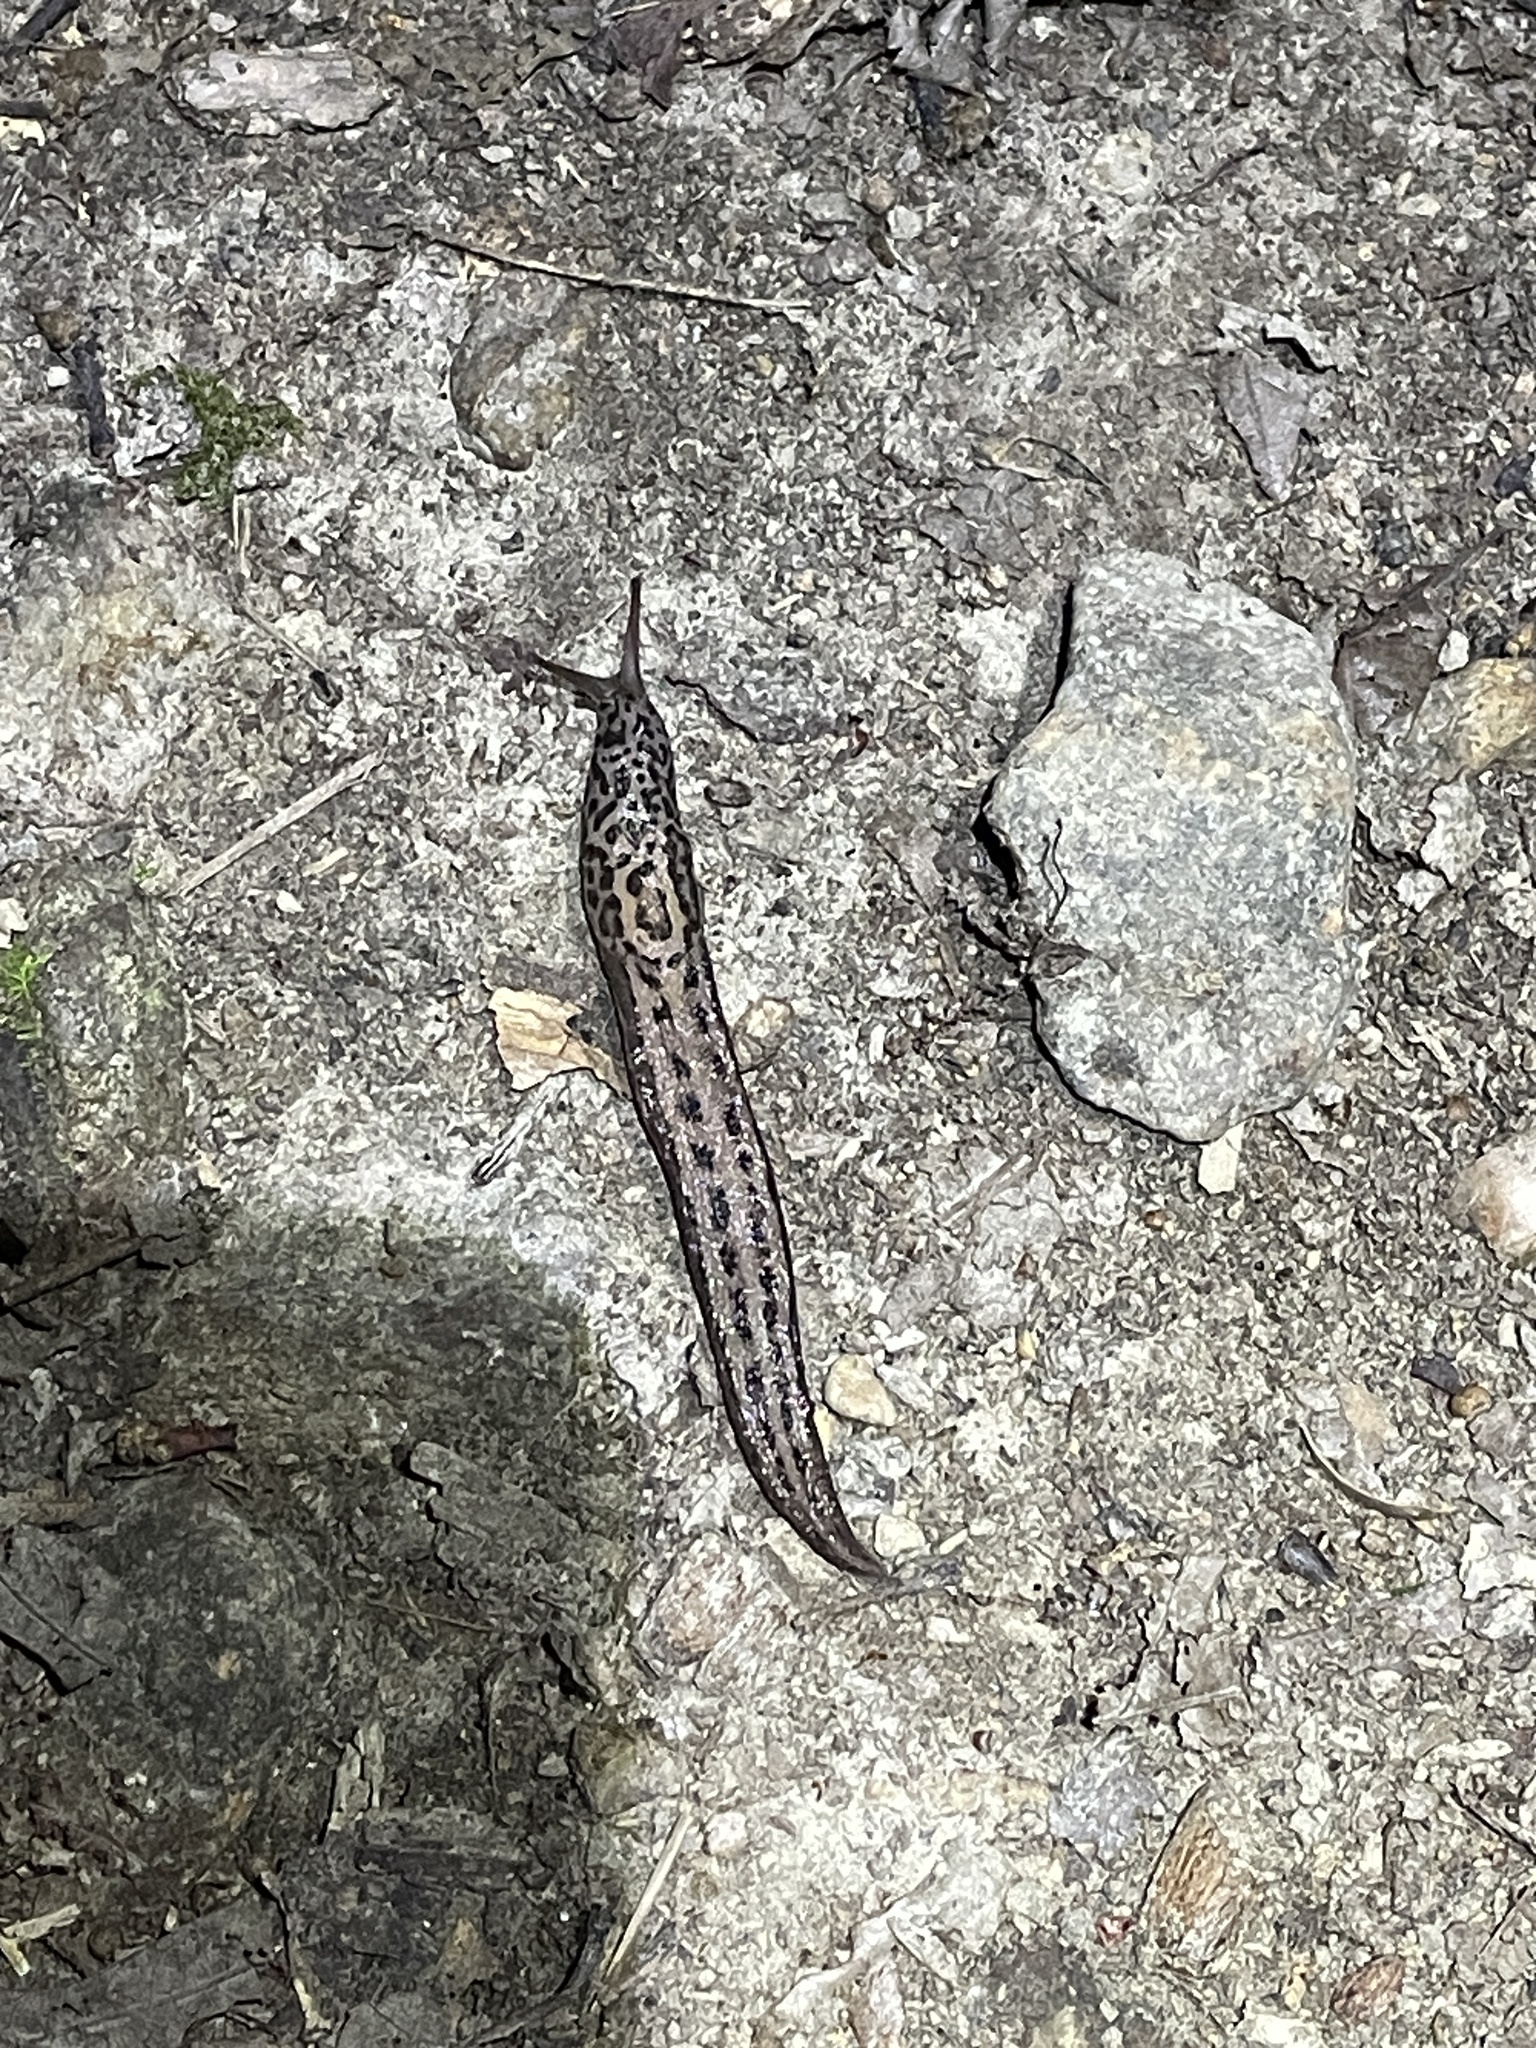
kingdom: Animalia
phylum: Mollusca
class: Gastropoda
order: Stylommatophora
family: Limacidae
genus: Limax
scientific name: Limax maximus
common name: Great grey slug
